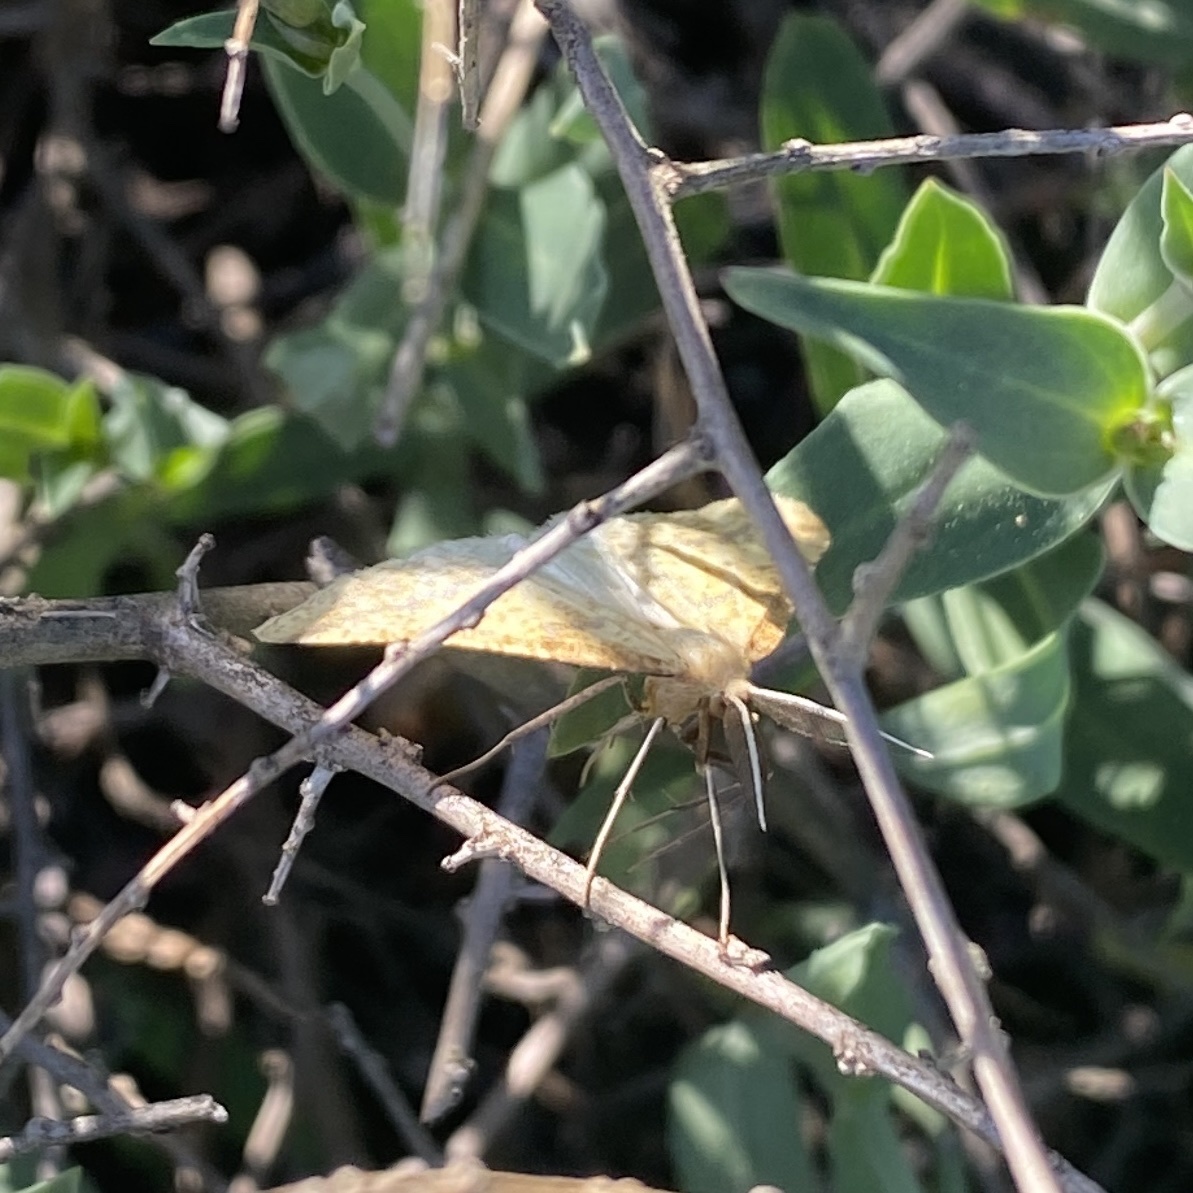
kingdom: Animalia
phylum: Arthropoda
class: Insecta
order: Lepidoptera
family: Geometridae
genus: Aspitates
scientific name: Aspitates ochrearia
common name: Yellow belle
